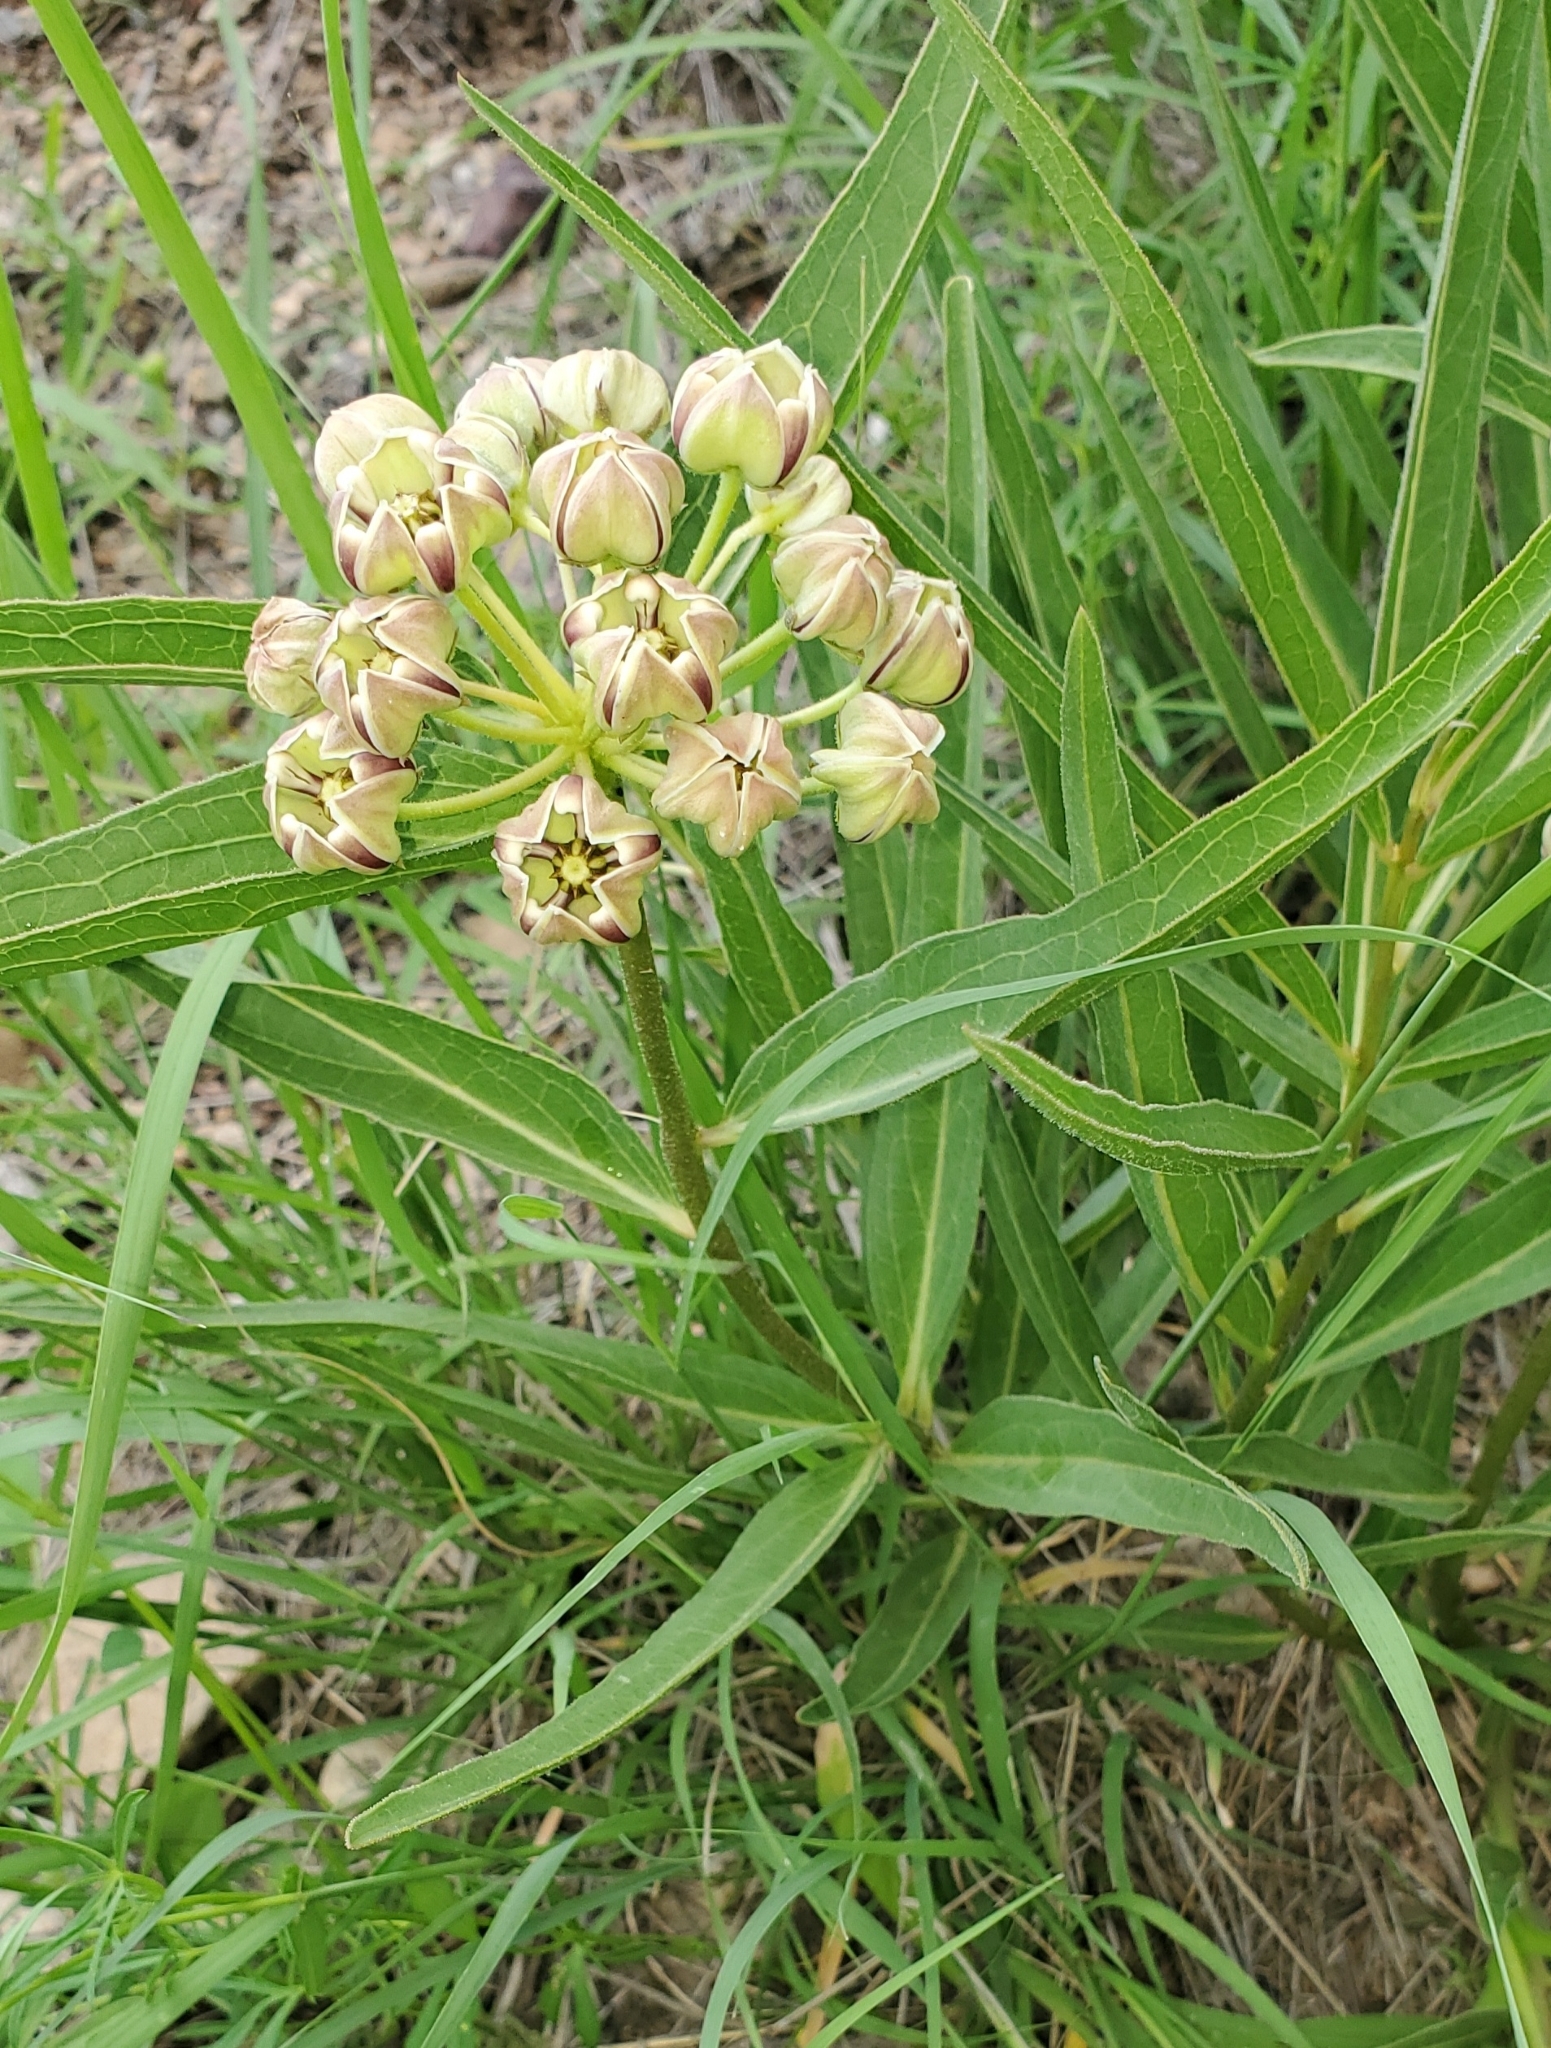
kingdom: Plantae
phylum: Tracheophyta
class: Magnoliopsida
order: Gentianales
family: Apocynaceae
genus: Asclepias
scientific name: Asclepias asperula
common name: Antelope horns
